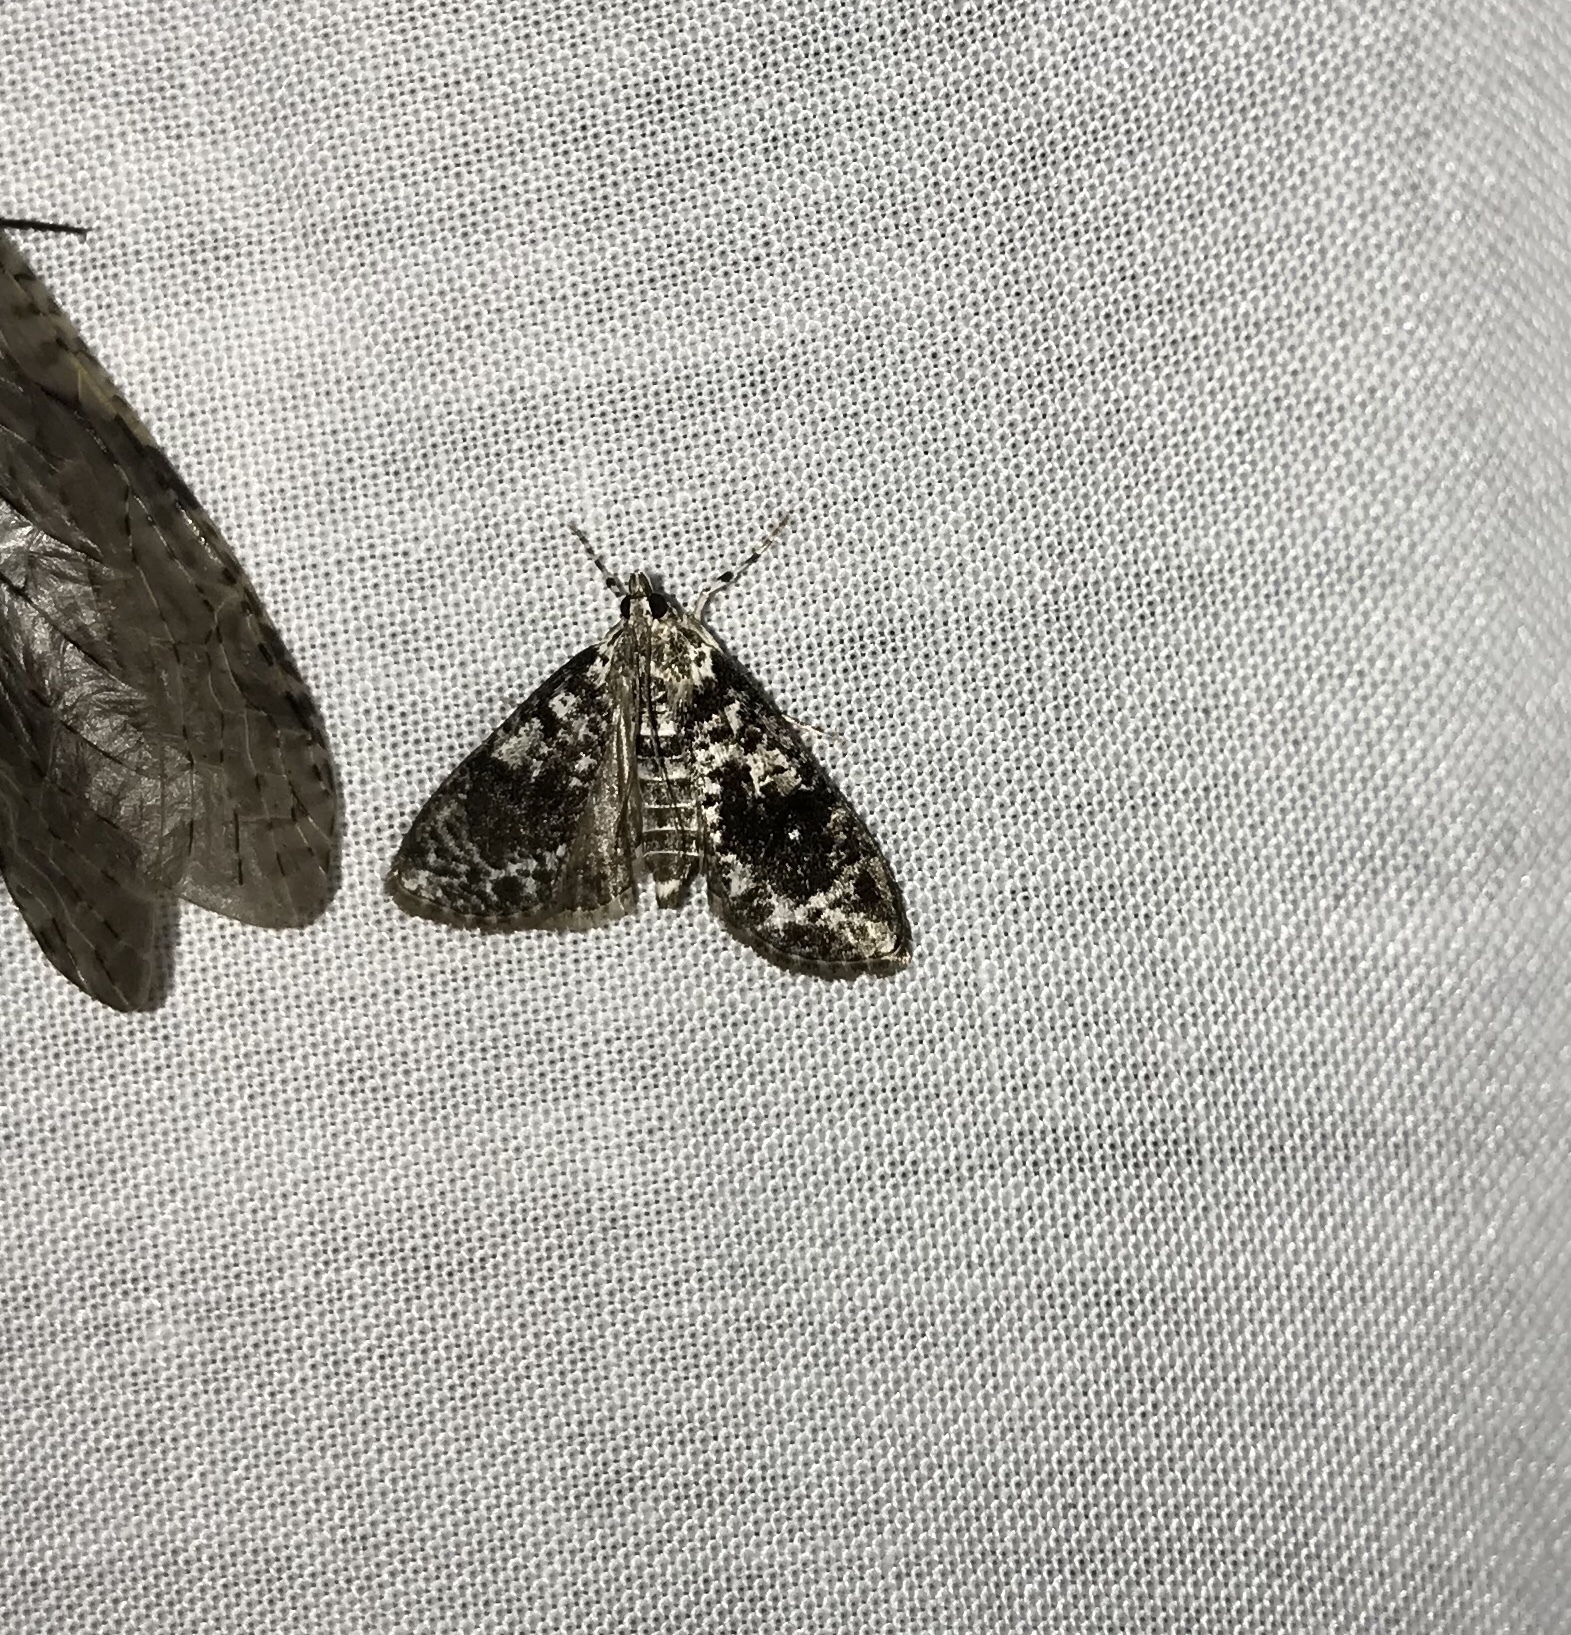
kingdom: Animalia
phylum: Arthropoda
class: Insecta
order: Lepidoptera
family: Crambidae
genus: Palpita
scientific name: Palpita magniferalis
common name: Splendid palpita moth
